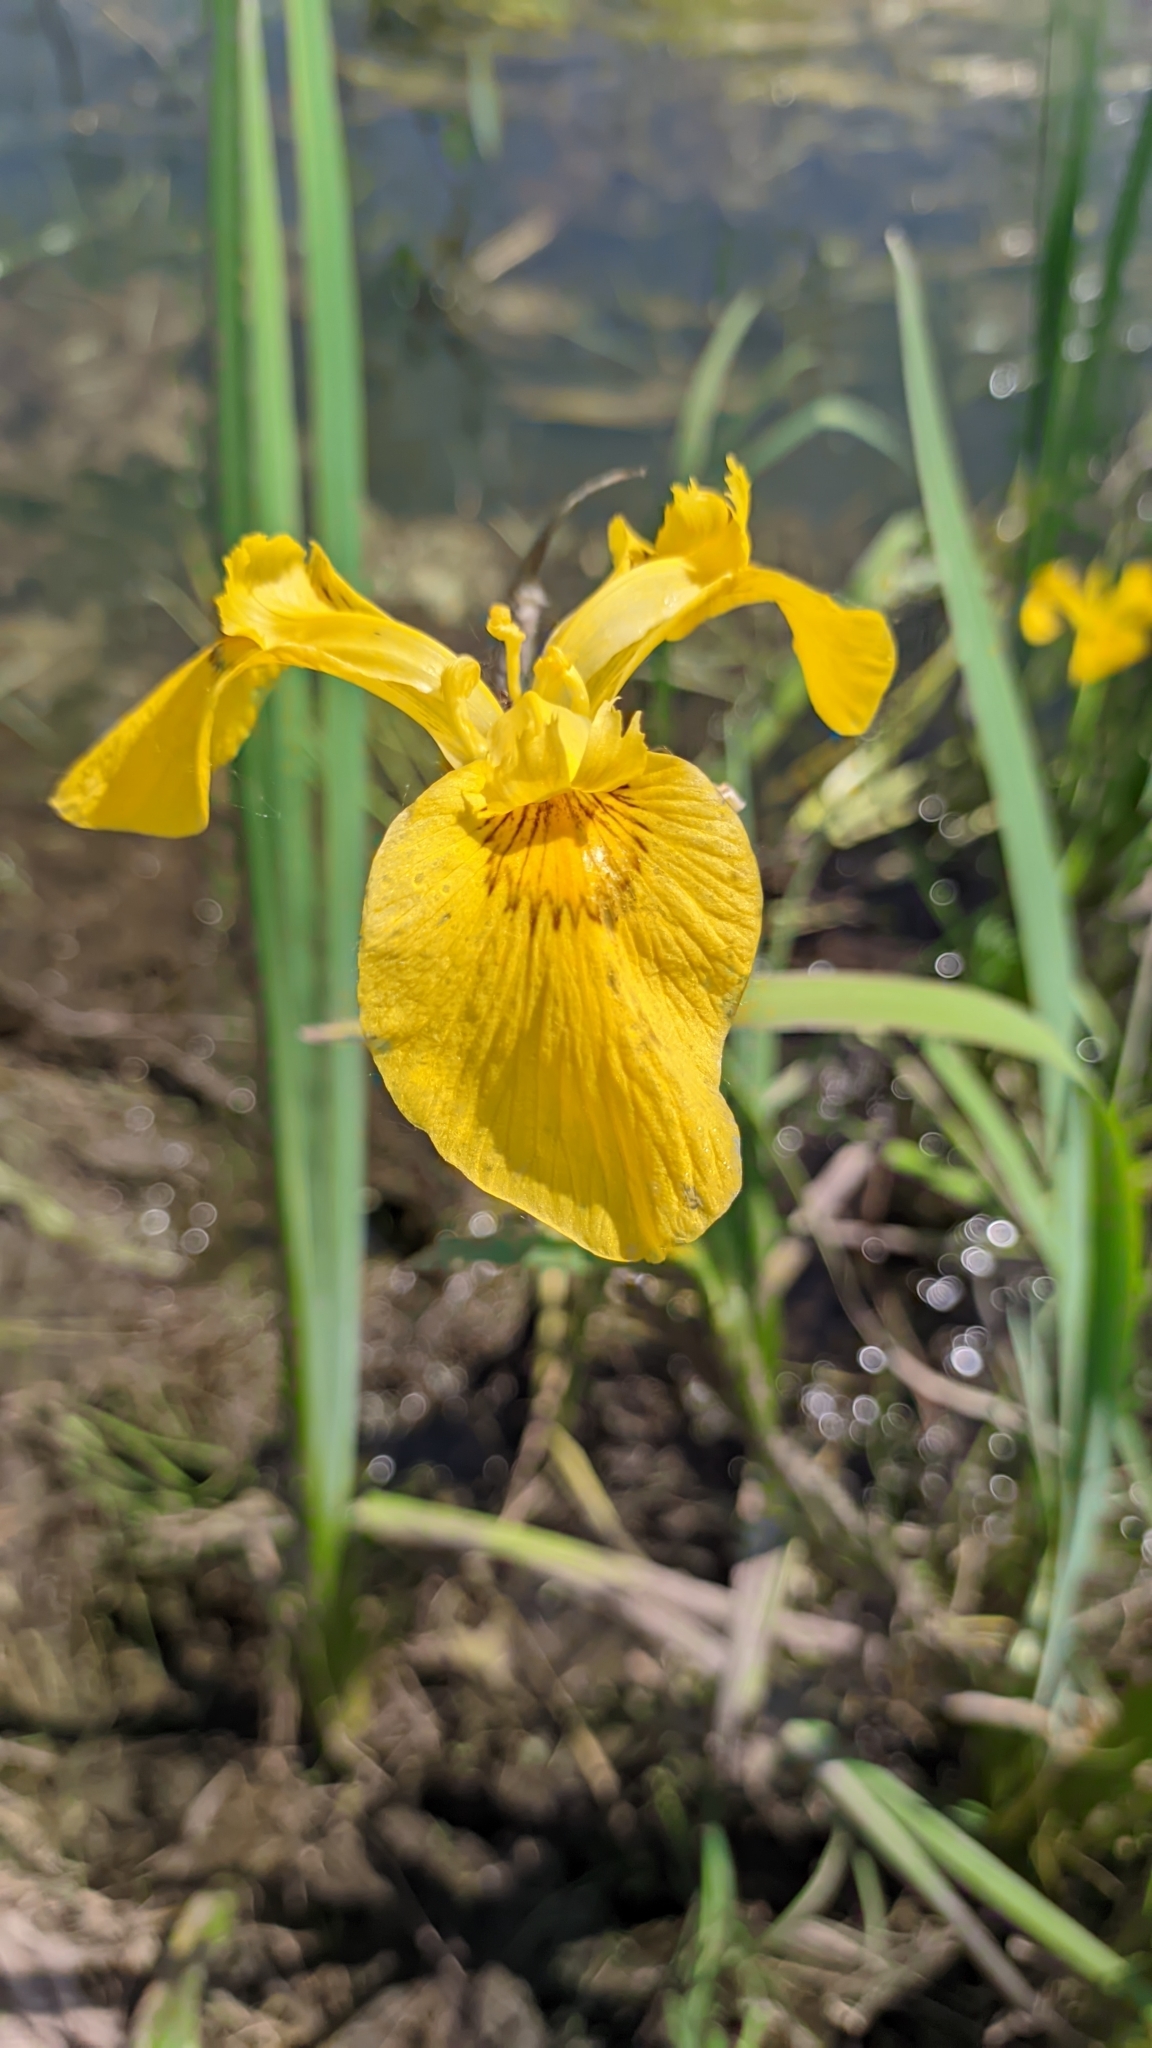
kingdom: Plantae
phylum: Tracheophyta
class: Liliopsida
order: Asparagales
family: Iridaceae
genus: Iris
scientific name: Iris pseudacorus
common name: Yellow flag
